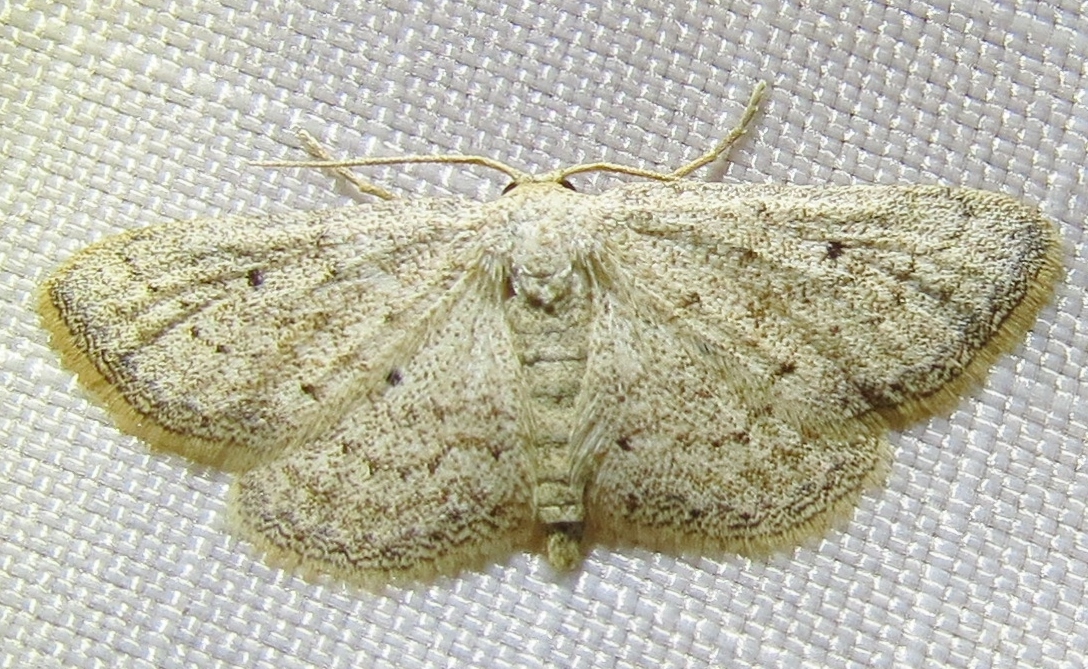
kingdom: Animalia
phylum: Arthropoda
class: Insecta
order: Lepidoptera
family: Geometridae
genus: Lobocleta
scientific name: Lobocleta ossularia
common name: Drab brown wave
